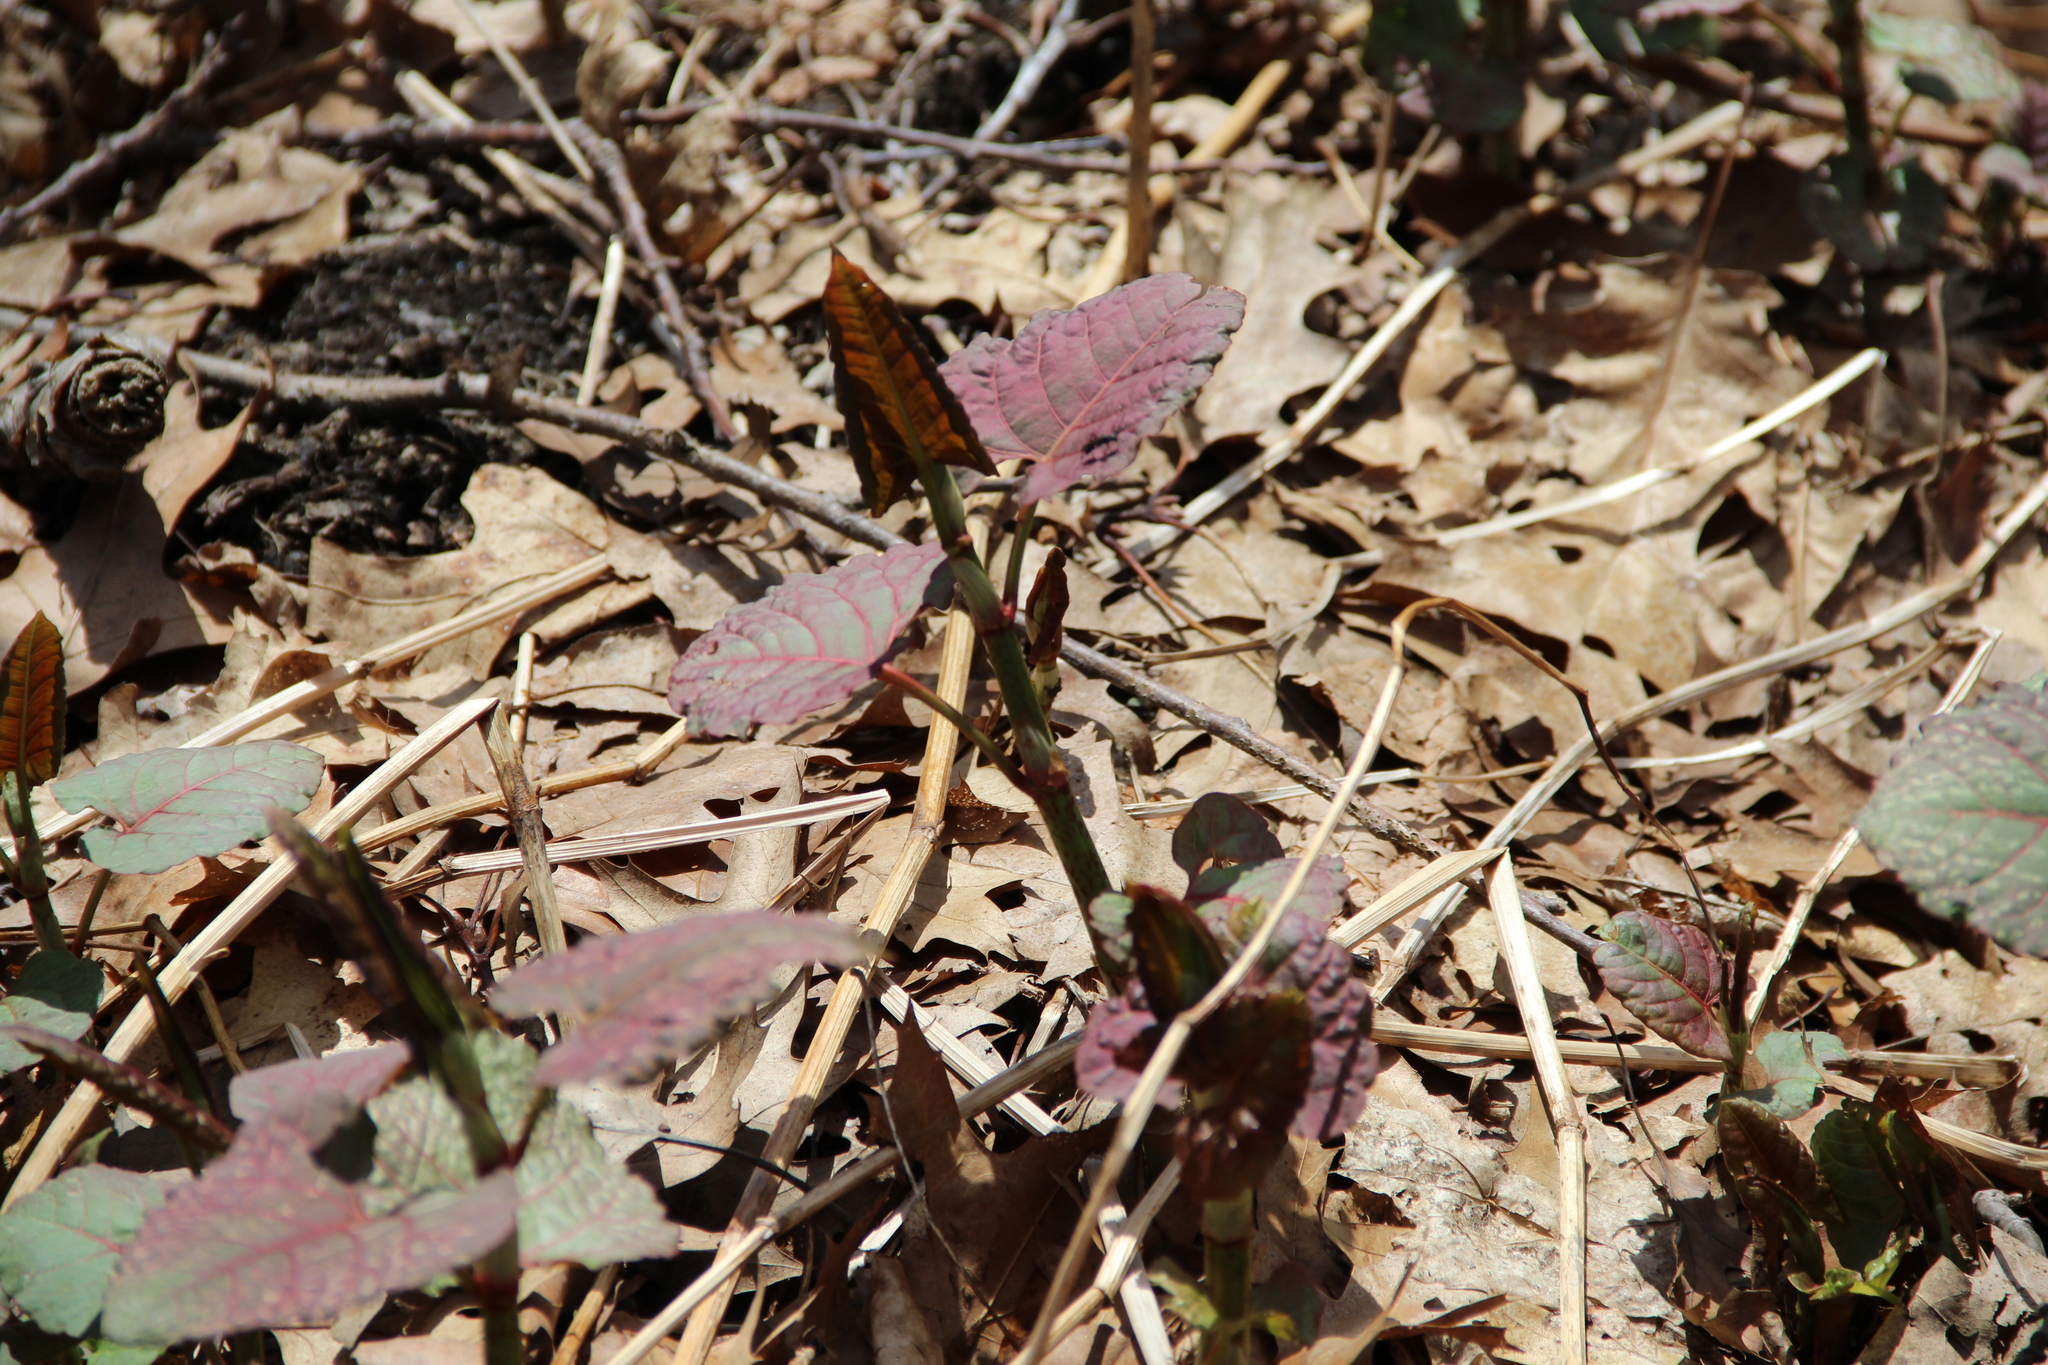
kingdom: Plantae
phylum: Tracheophyta
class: Magnoliopsida
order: Caryophyllales
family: Polygonaceae
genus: Reynoutria
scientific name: Reynoutria japonica
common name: Japanese knotweed
